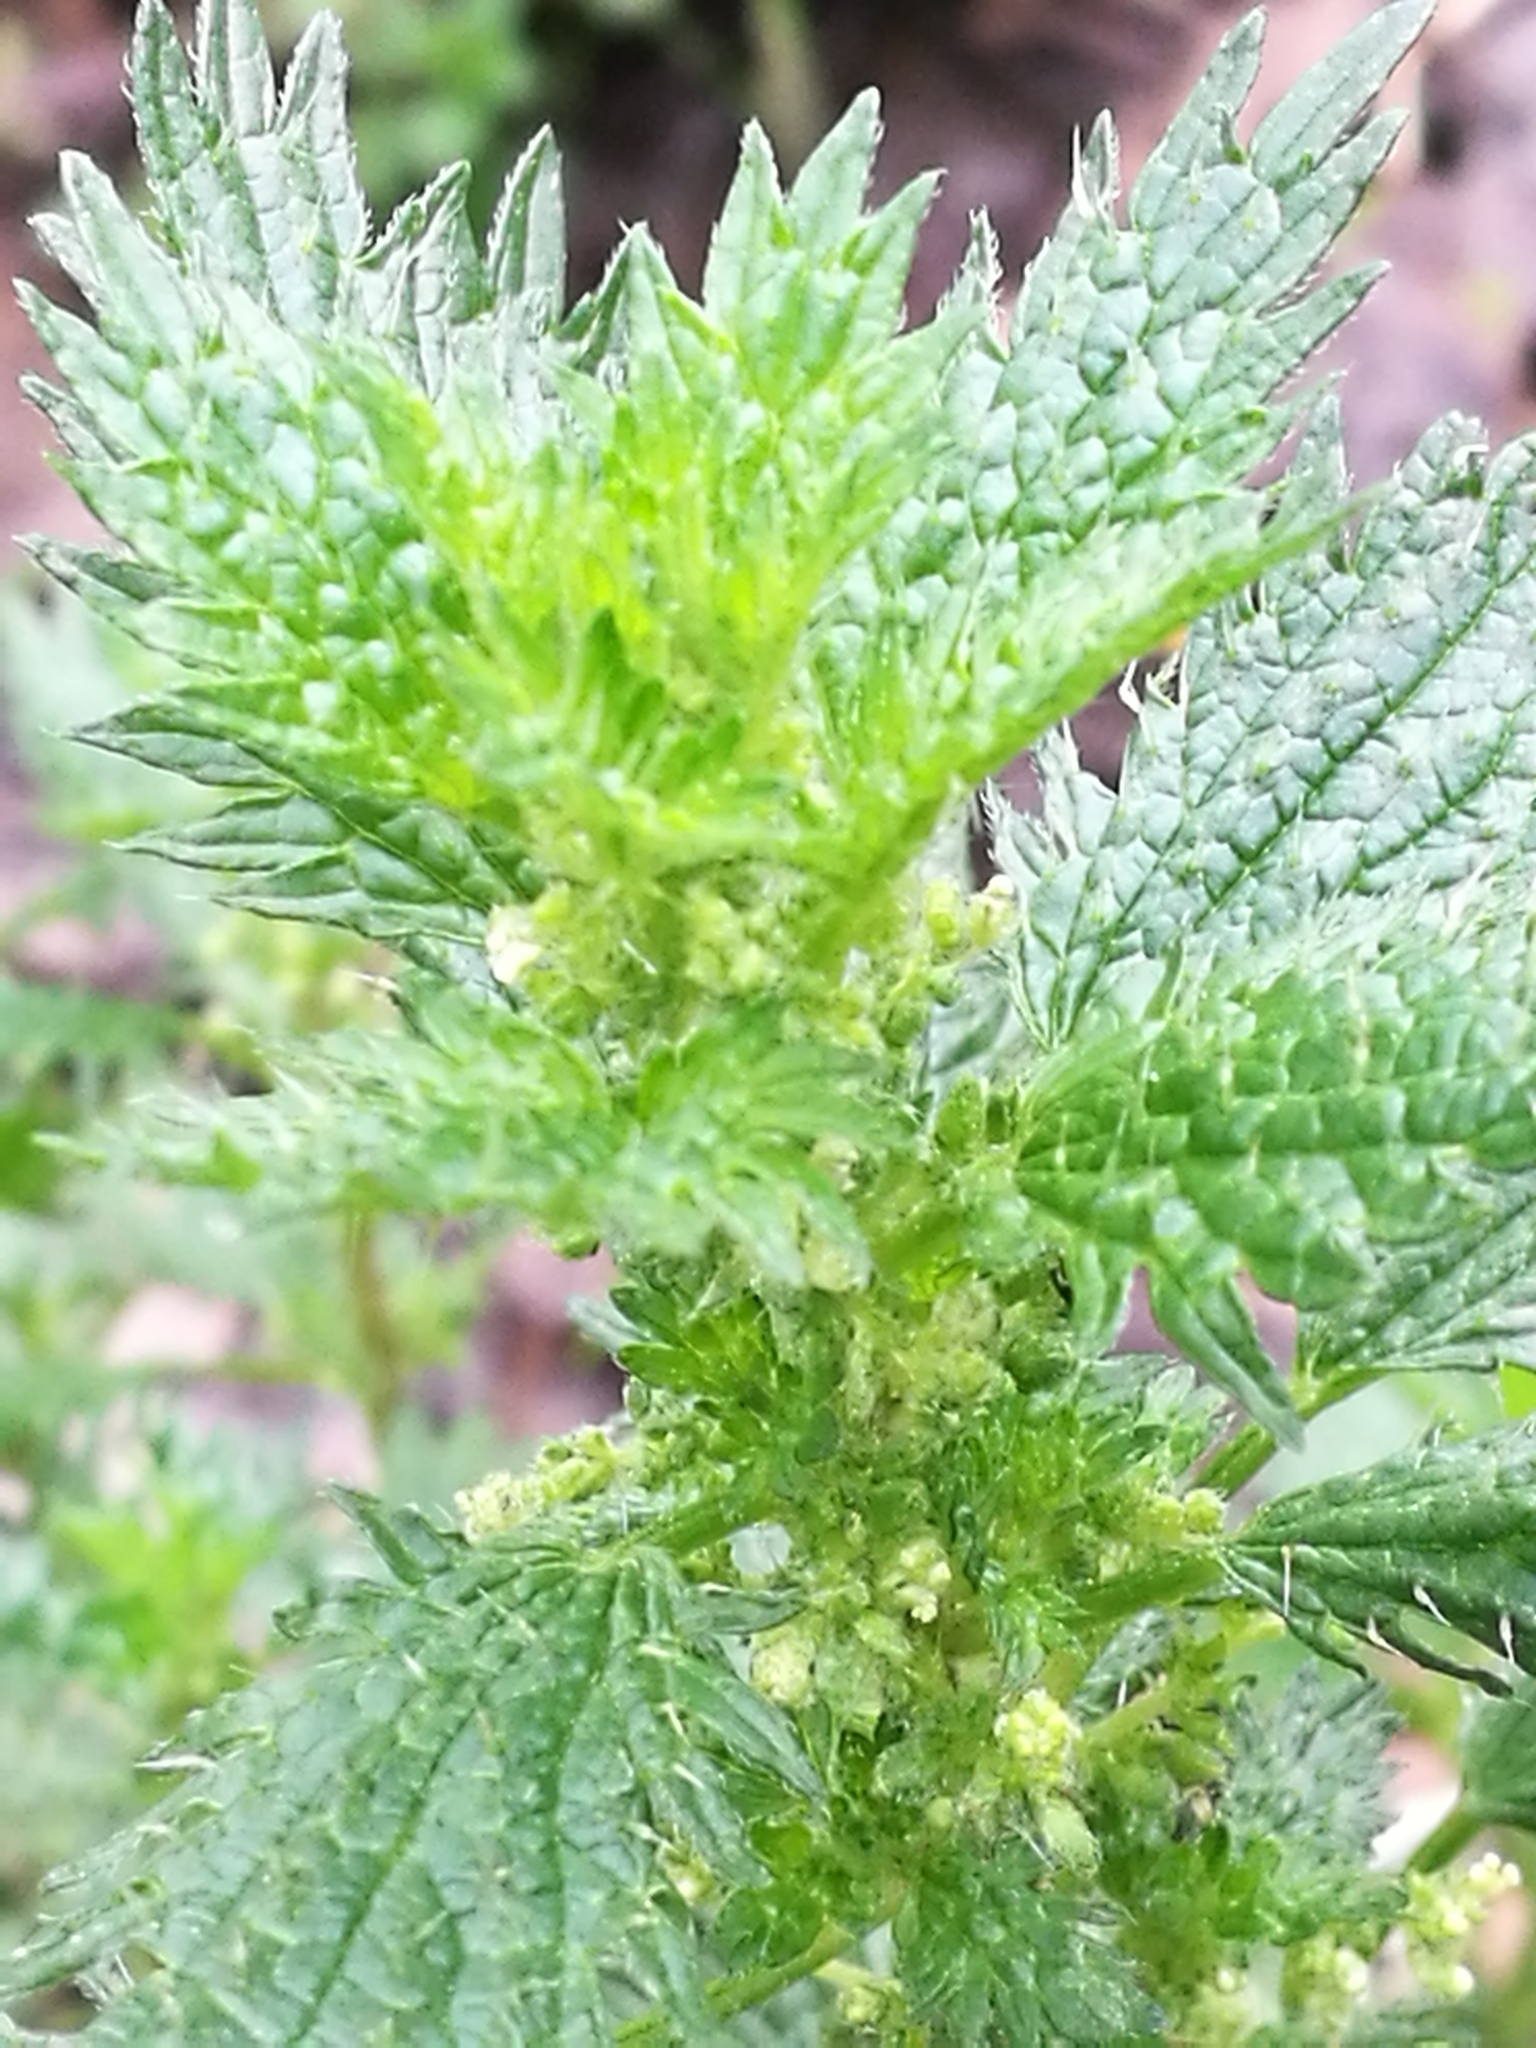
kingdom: Plantae
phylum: Tracheophyta
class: Magnoliopsida
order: Rosales
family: Urticaceae
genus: Urtica
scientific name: Urtica urens
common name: Dwarf nettle
